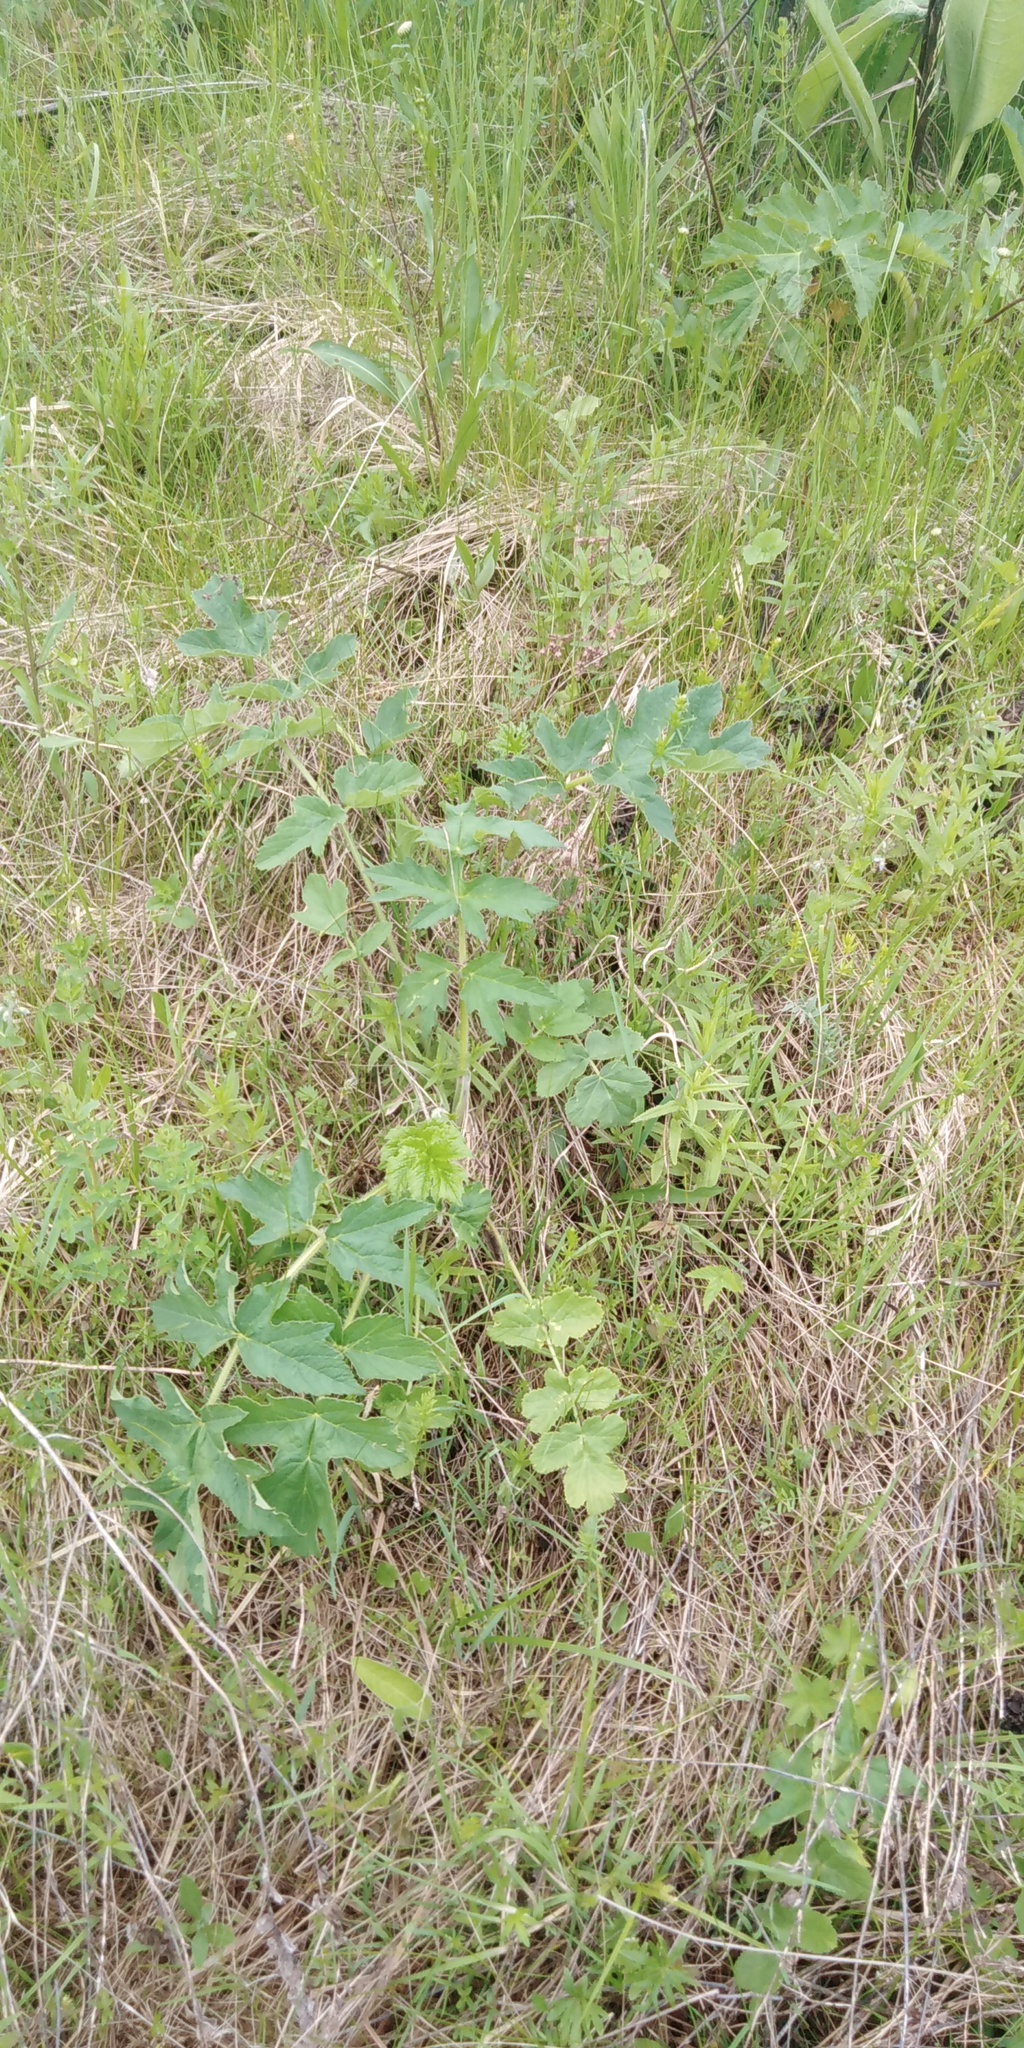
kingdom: Plantae
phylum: Tracheophyta
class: Magnoliopsida
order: Apiales
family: Apiaceae
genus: Heracleum
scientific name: Heracleum sphondylium
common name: Hogweed
